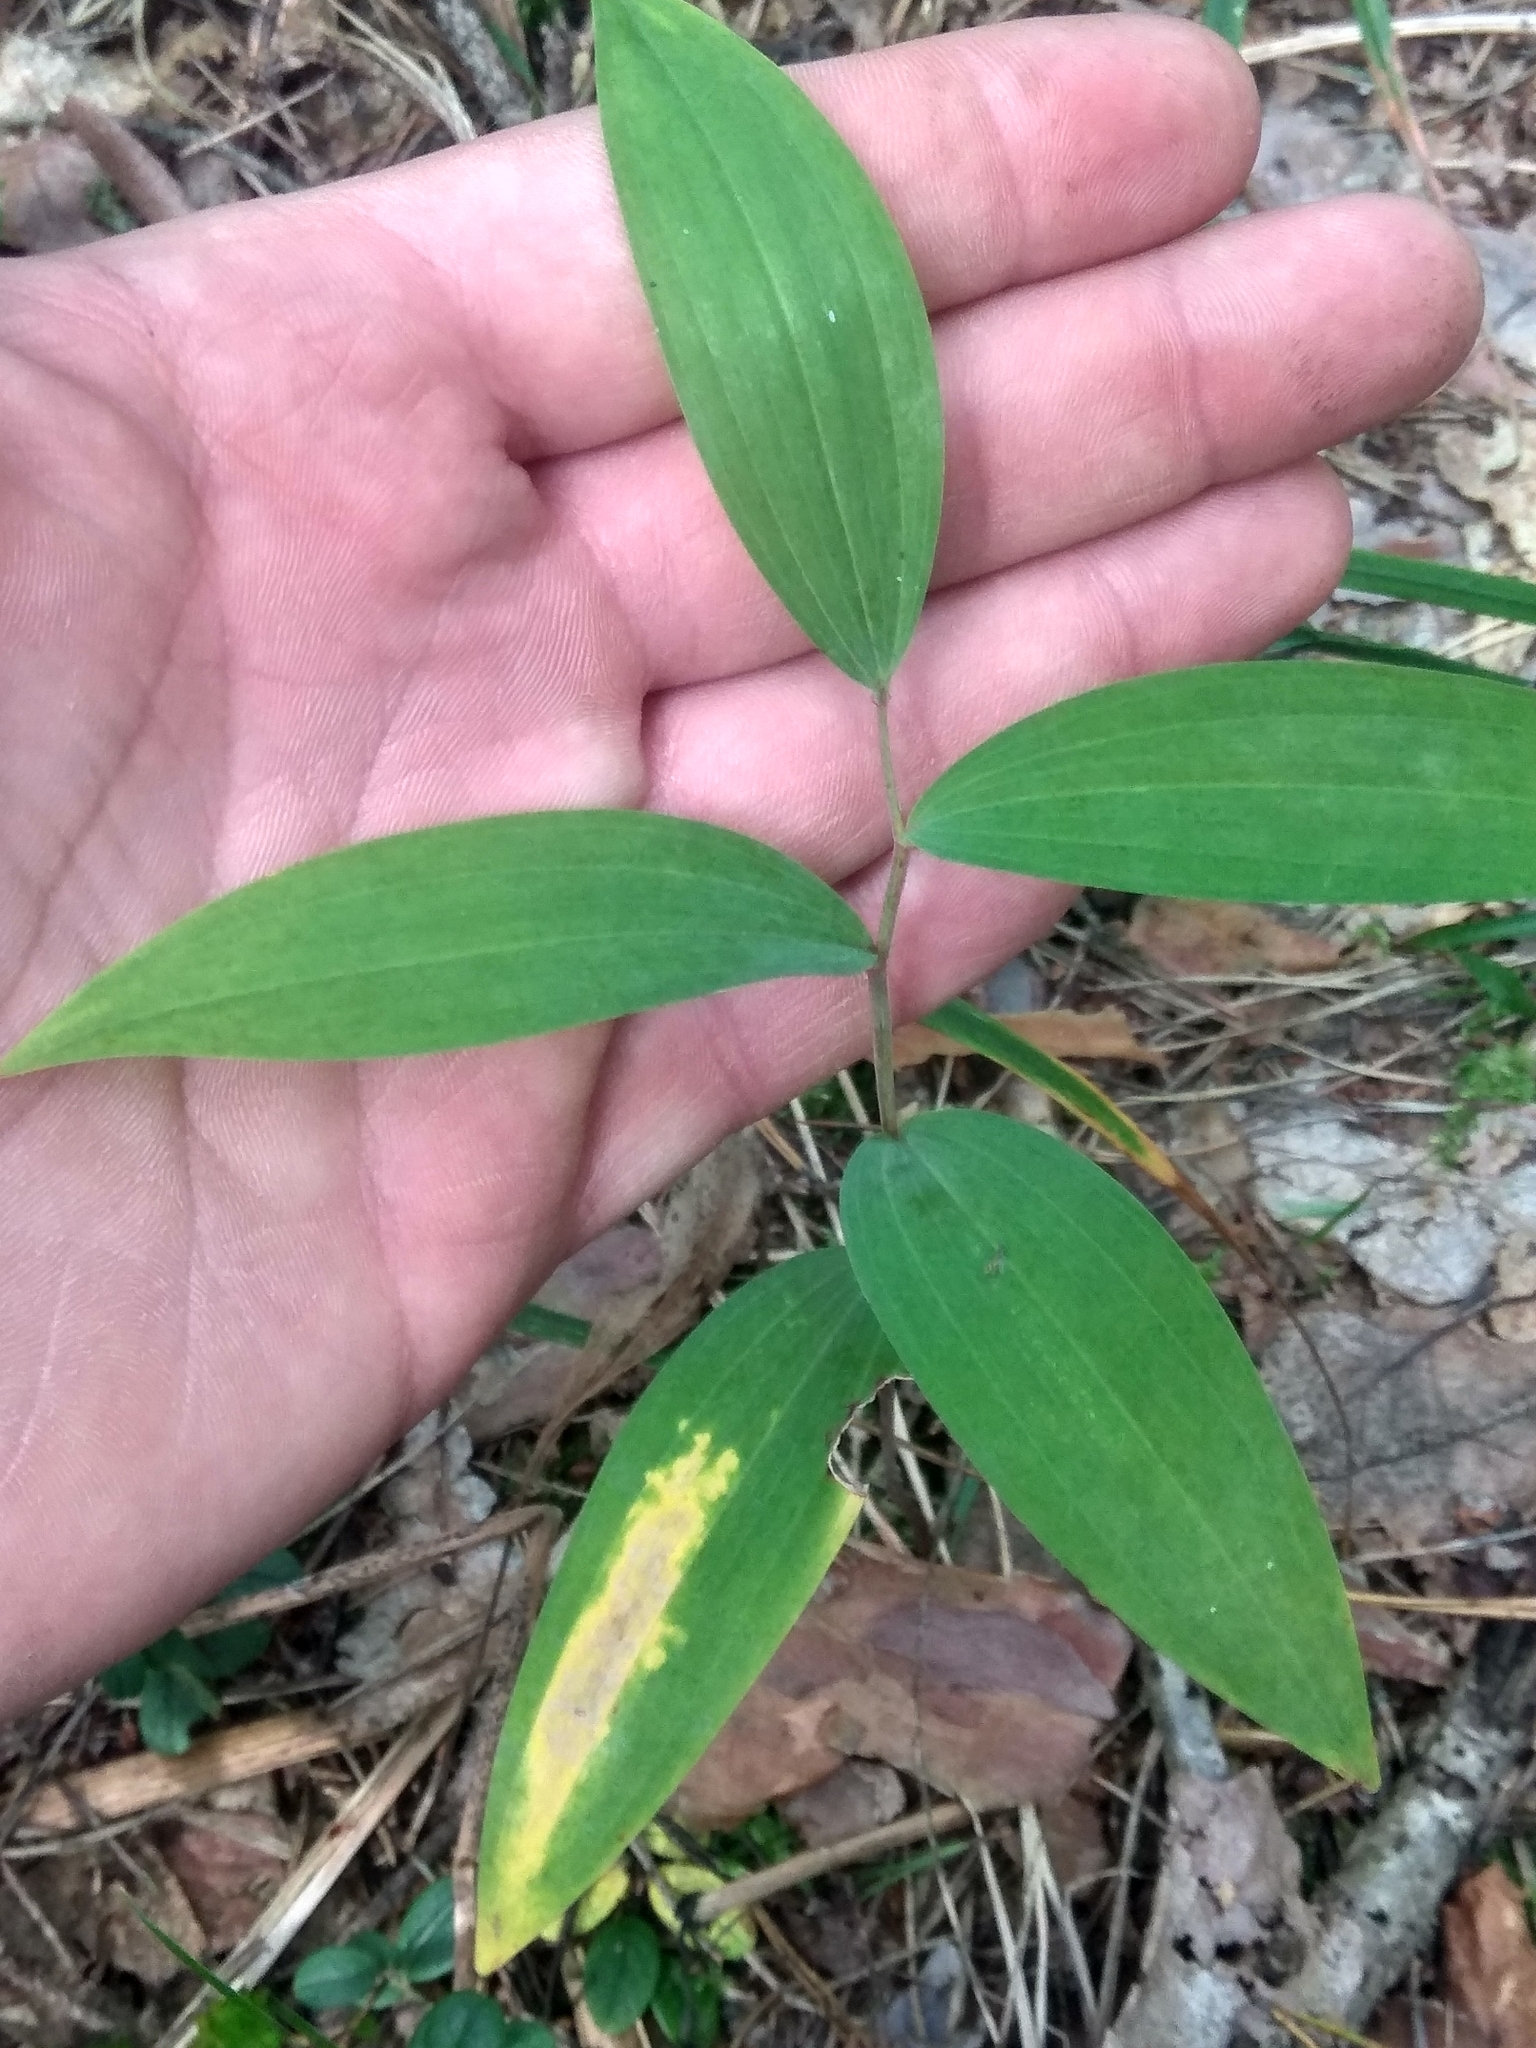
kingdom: Plantae
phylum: Tracheophyta
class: Liliopsida
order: Asparagales
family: Asparagaceae
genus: Polygonatum
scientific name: Polygonatum odoratum
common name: Angular solomon's-seal
